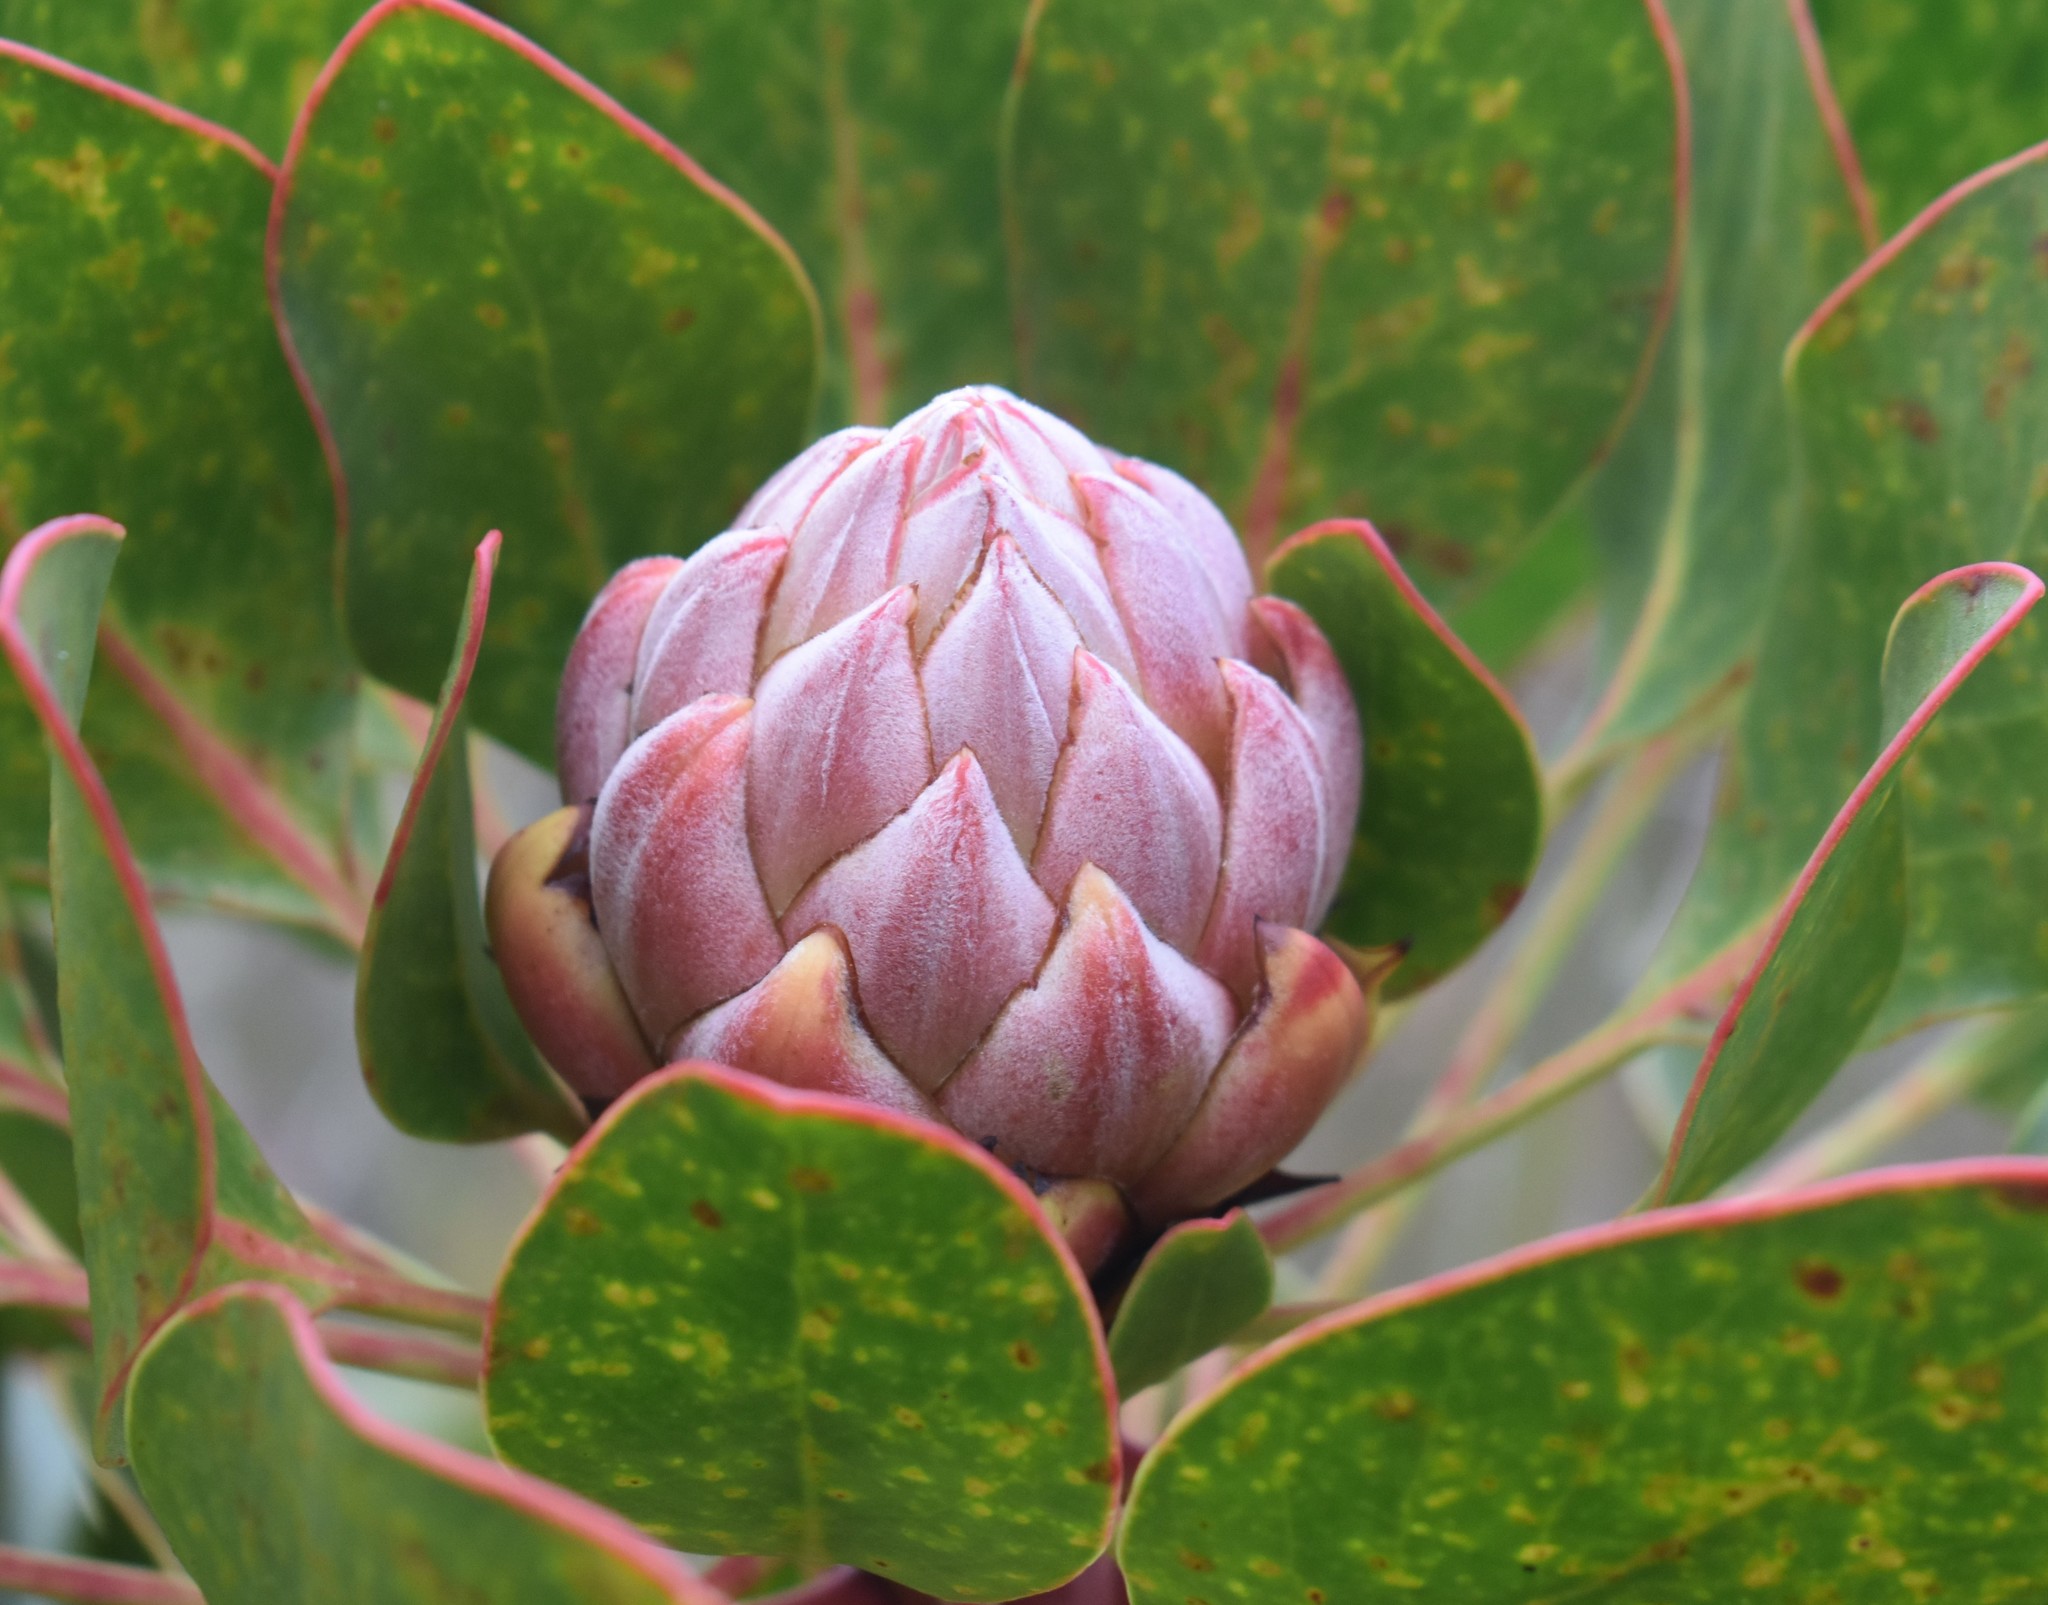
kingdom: Plantae
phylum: Tracheophyta
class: Magnoliopsida
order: Proteales
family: Proteaceae
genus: Protea
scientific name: Protea cynaroides
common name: King protea
